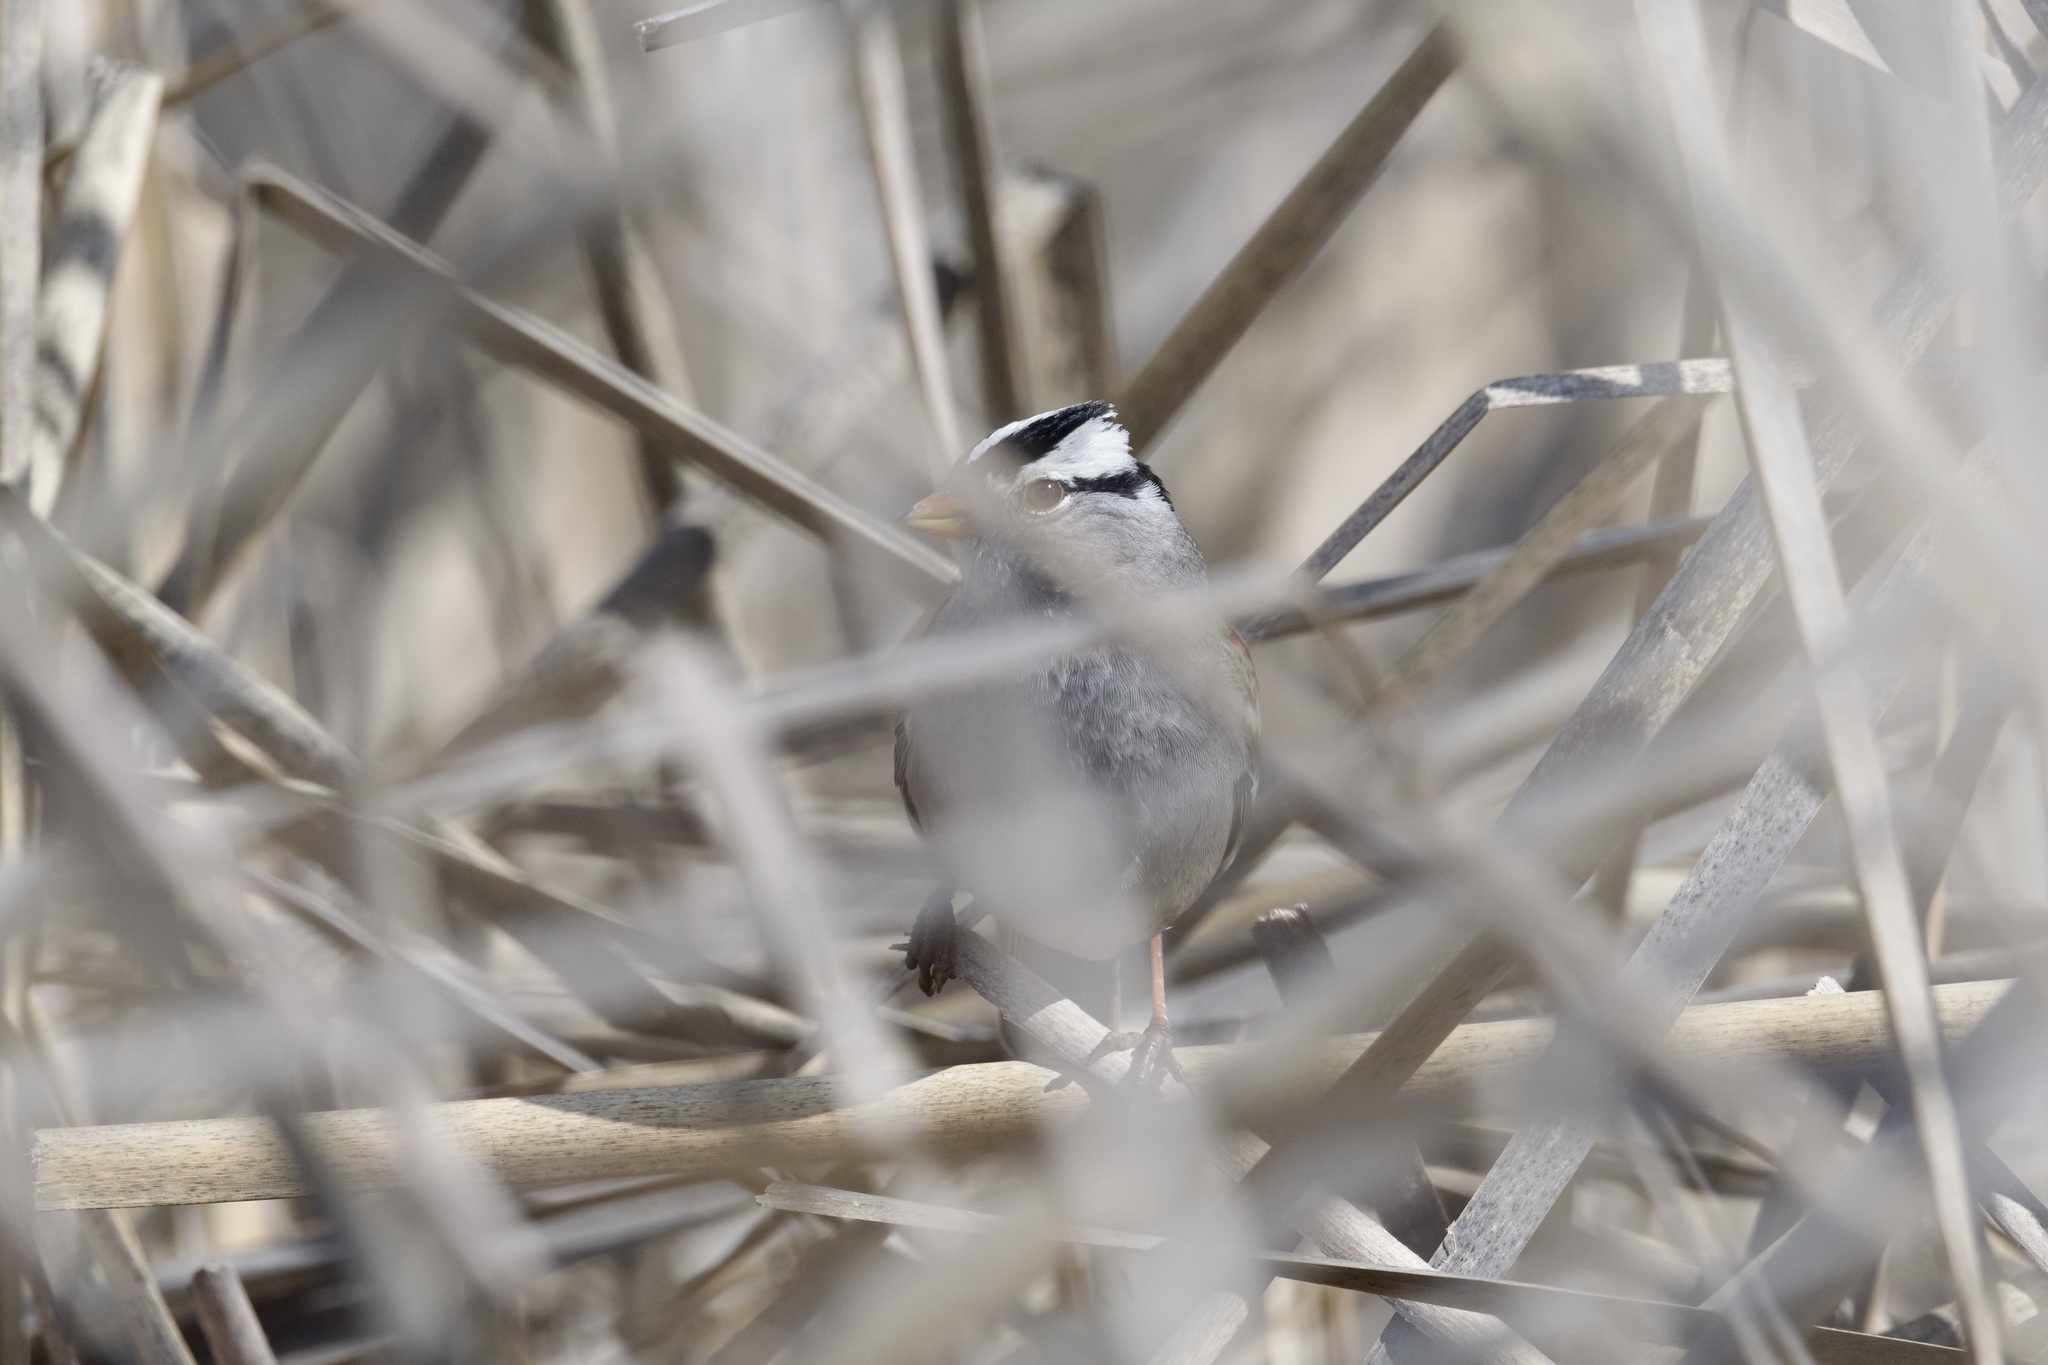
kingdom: Animalia
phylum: Chordata
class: Aves
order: Passeriformes
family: Passerellidae
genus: Zonotrichia
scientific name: Zonotrichia leucophrys
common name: White-crowned sparrow
